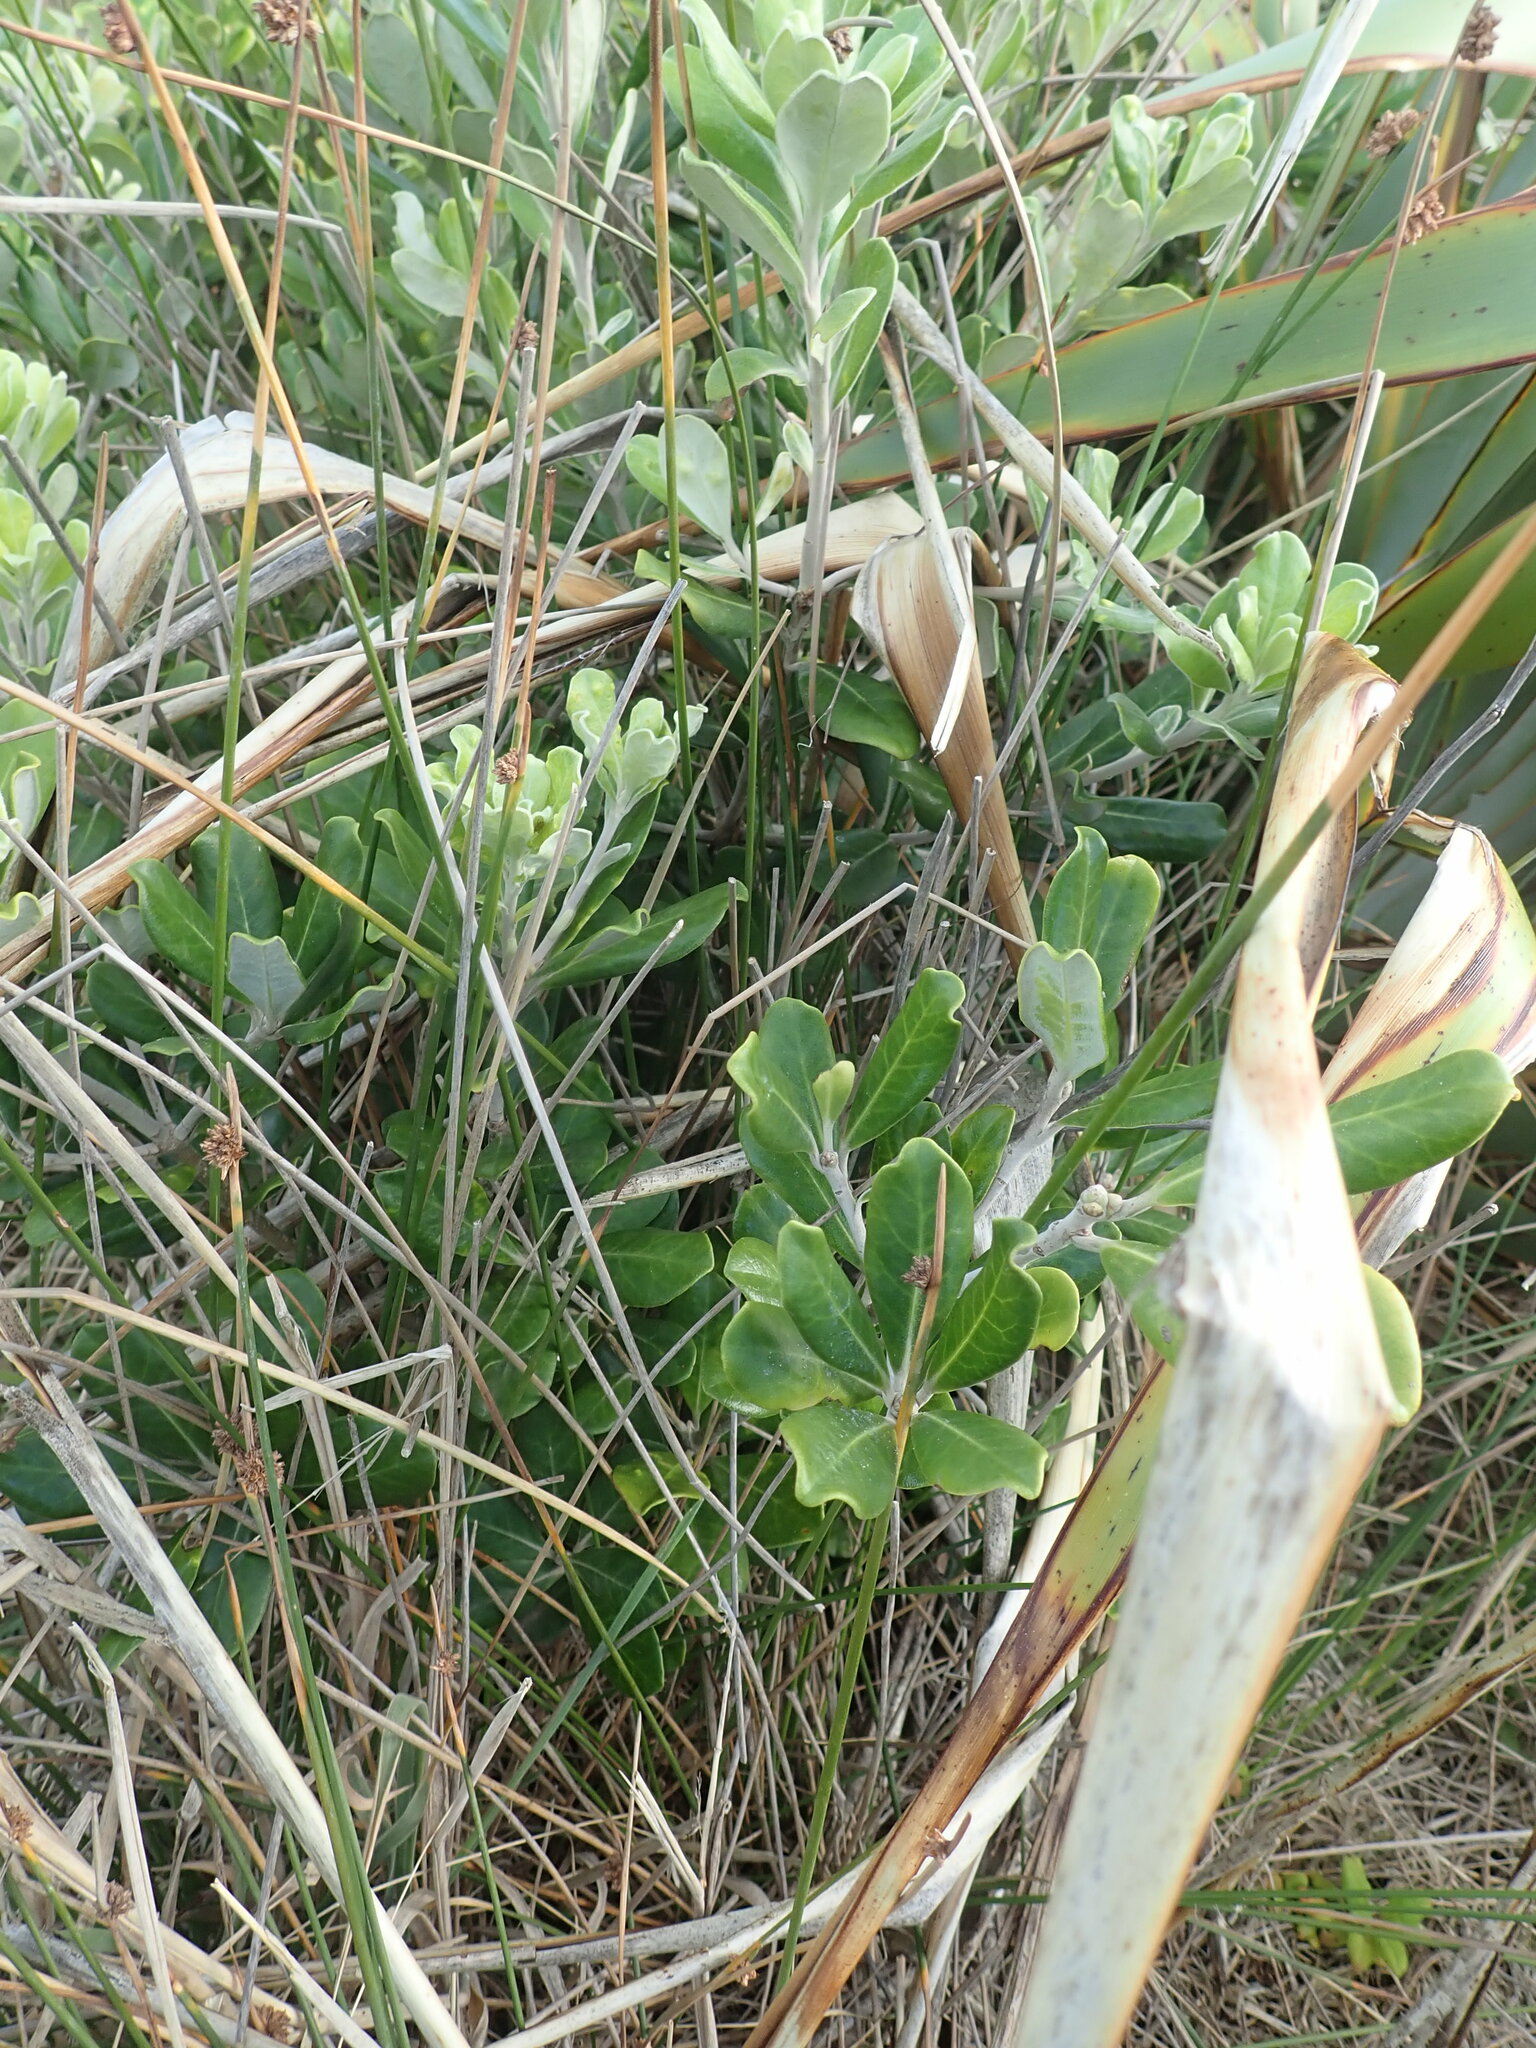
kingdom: Plantae
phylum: Tracheophyta
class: Magnoliopsida
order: Apiales
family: Pittosporaceae
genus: Pittosporum
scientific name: Pittosporum crassifolium
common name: Karo
